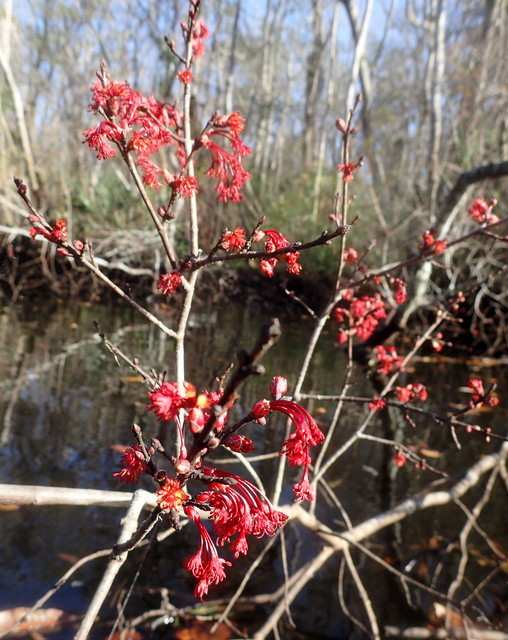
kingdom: Plantae
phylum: Tracheophyta
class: Magnoliopsida
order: Sapindales
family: Sapindaceae
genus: Acer
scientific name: Acer rubrum
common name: Red maple
